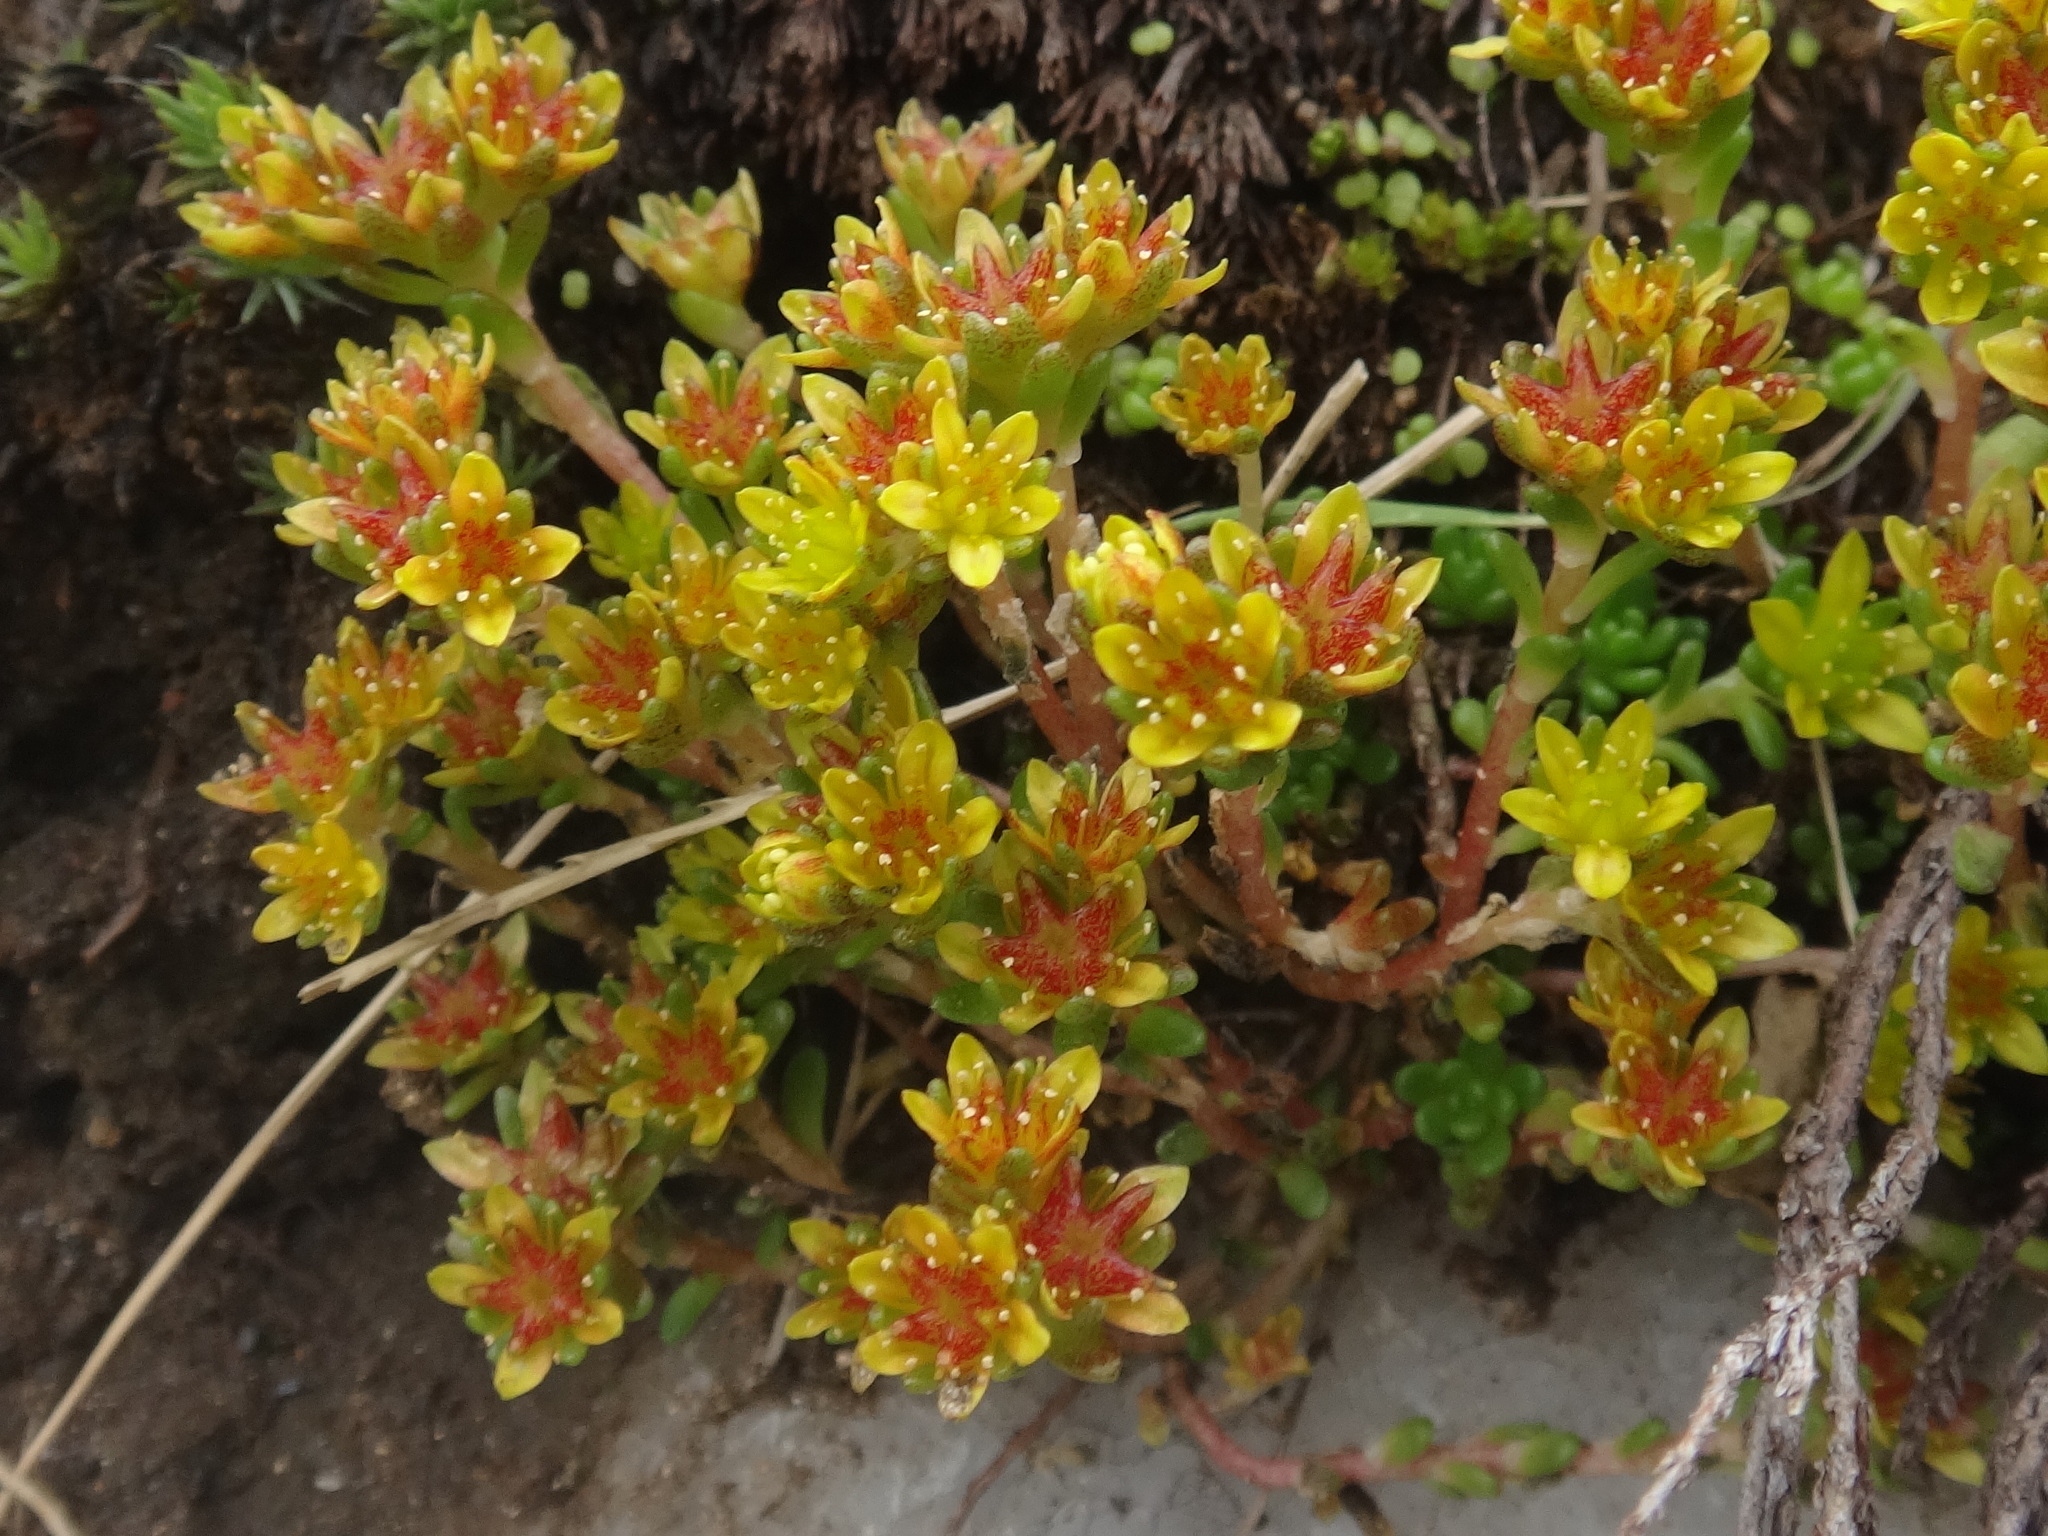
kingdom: Plantae
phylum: Tracheophyta
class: Magnoliopsida
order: Saxifragales
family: Crassulaceae
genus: Sedum
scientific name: Sedum alpestre
